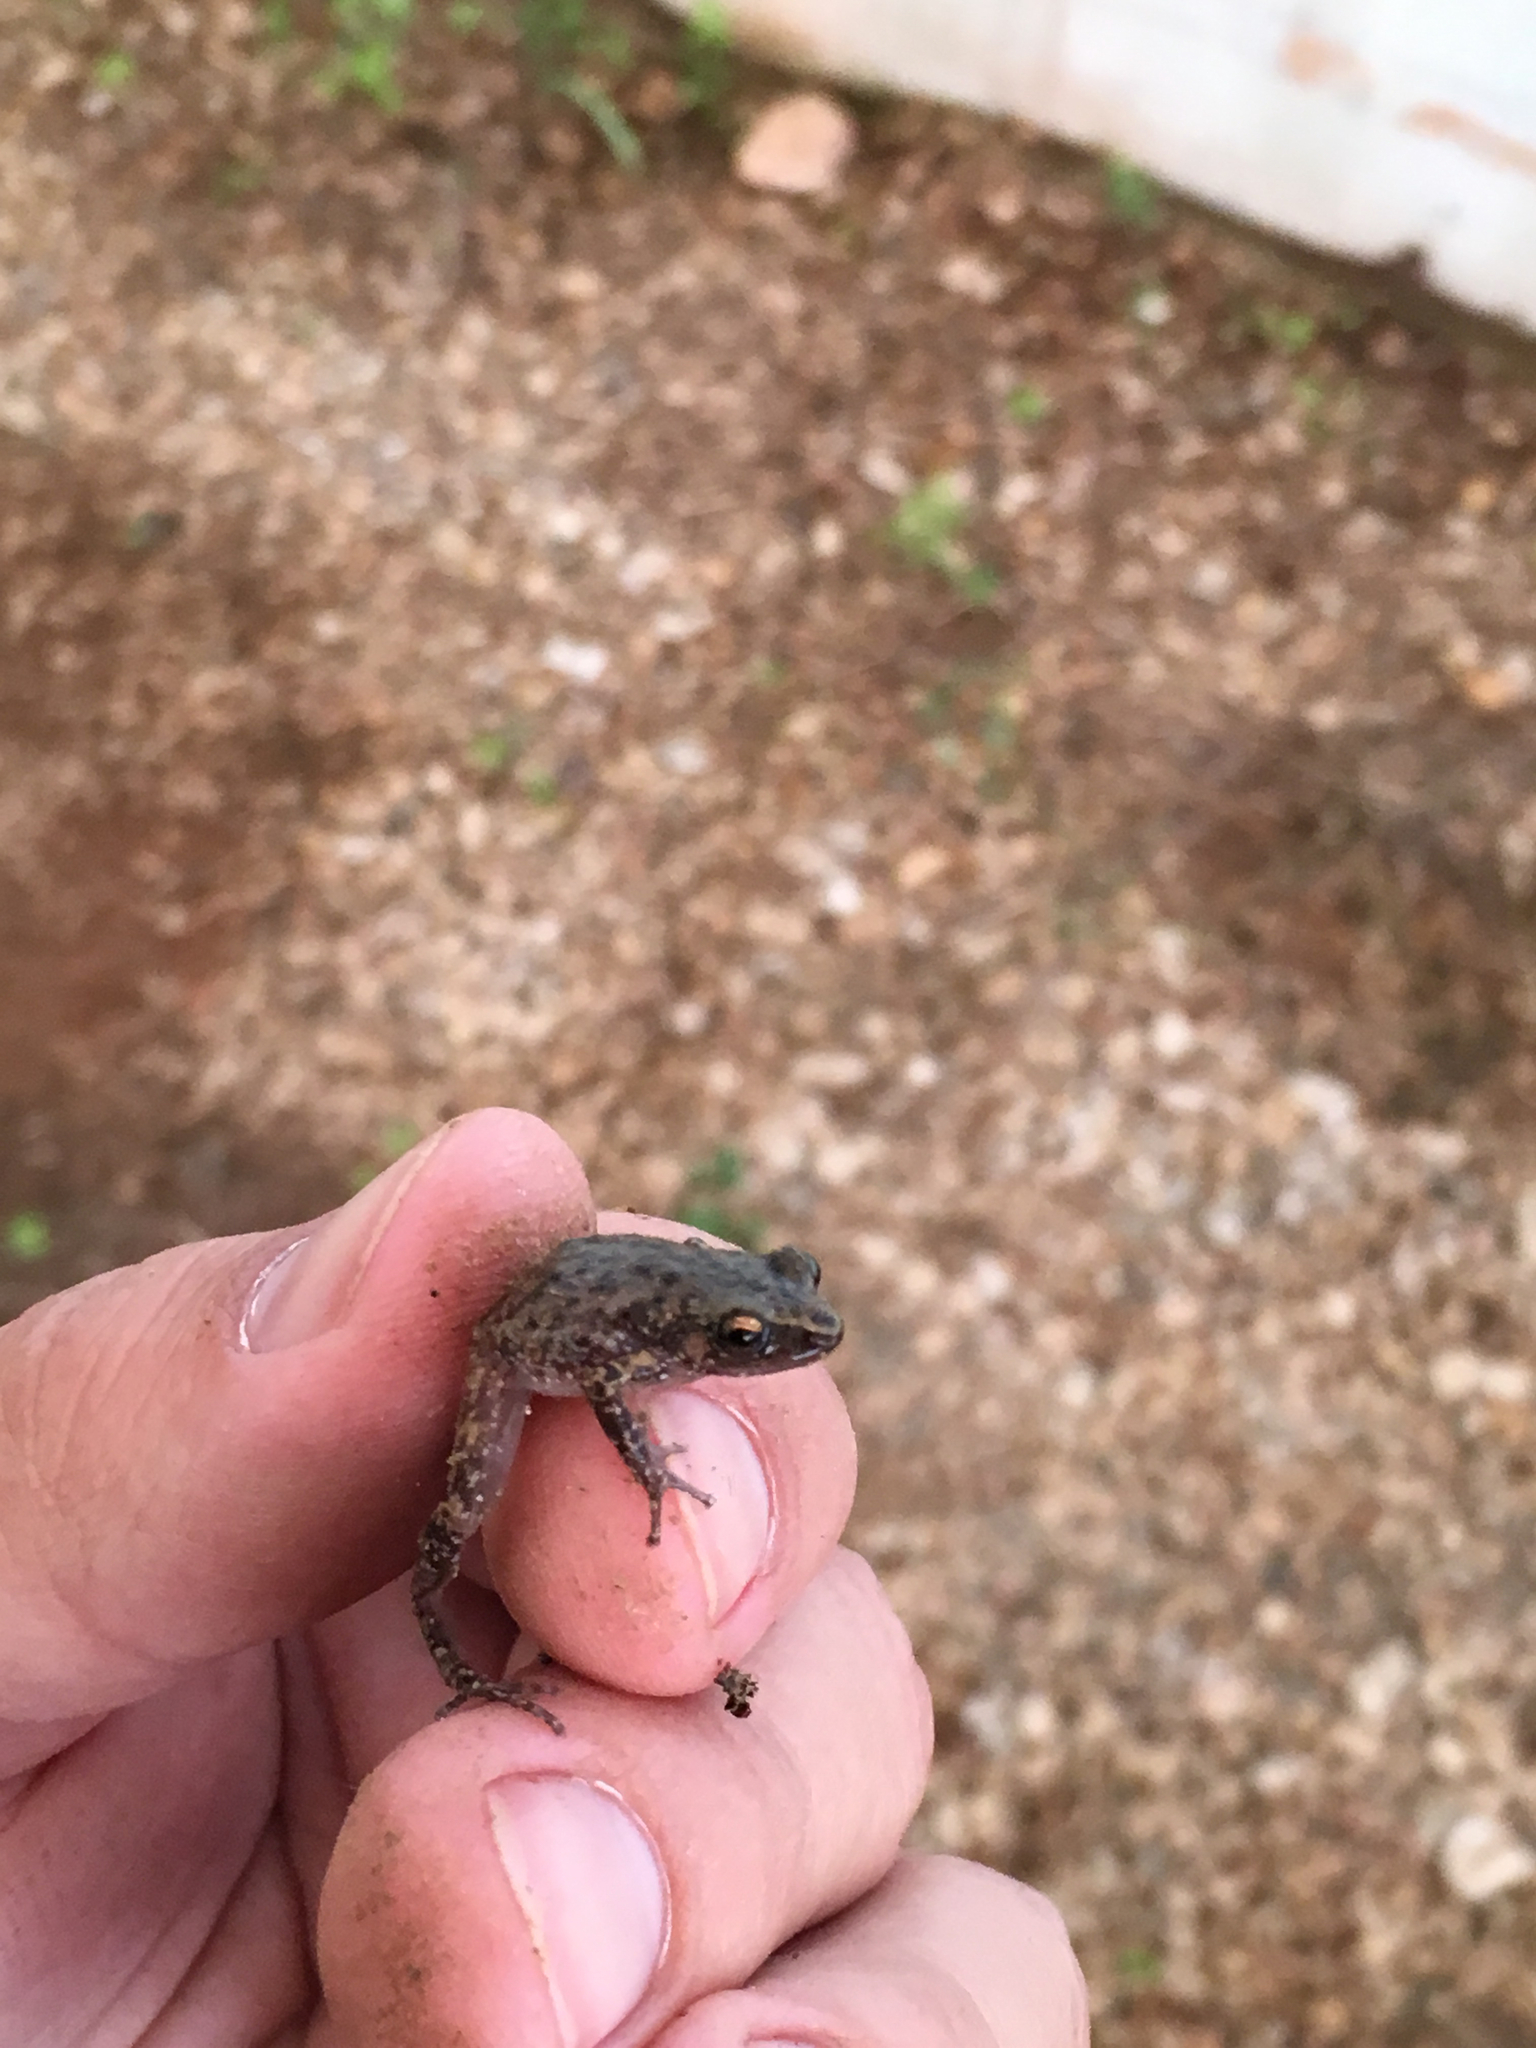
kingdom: Animalia
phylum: Chordata
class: Amphibia
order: Anura
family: Eleutherodactylidae
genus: Eleutherodactylus
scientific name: Eleutherodactylus campi
